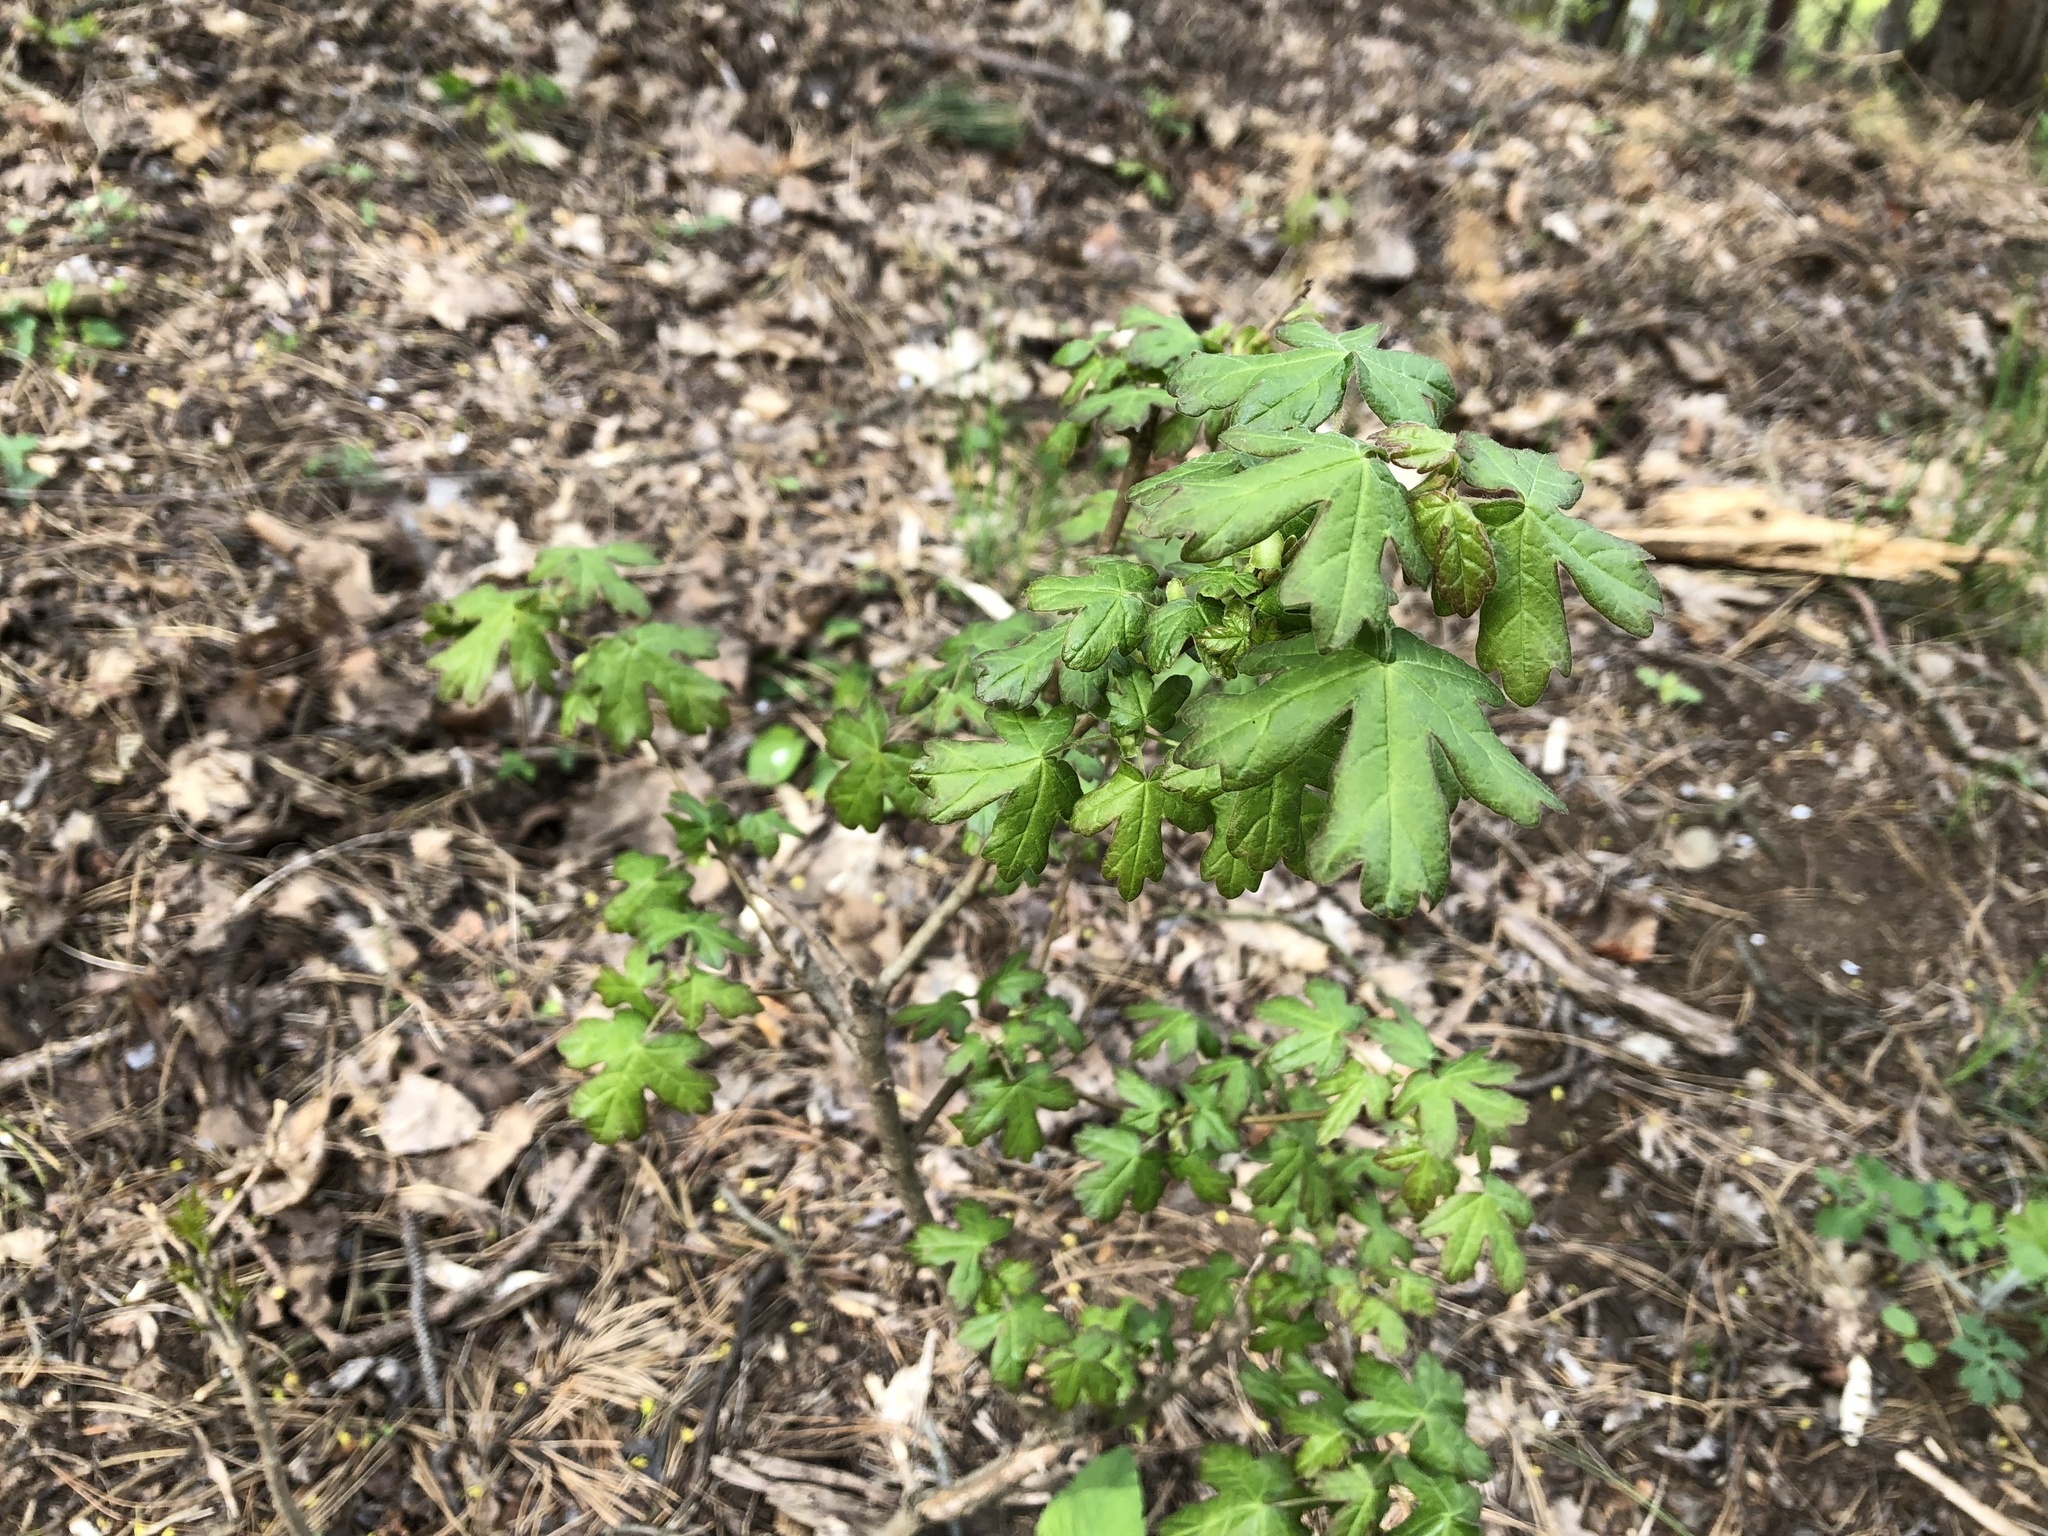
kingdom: Plantae
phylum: Tracheophyta
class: Magnoliopsida
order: Sapindales
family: Sapindaceae
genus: Acer
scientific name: Acer campestre
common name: Field maple
